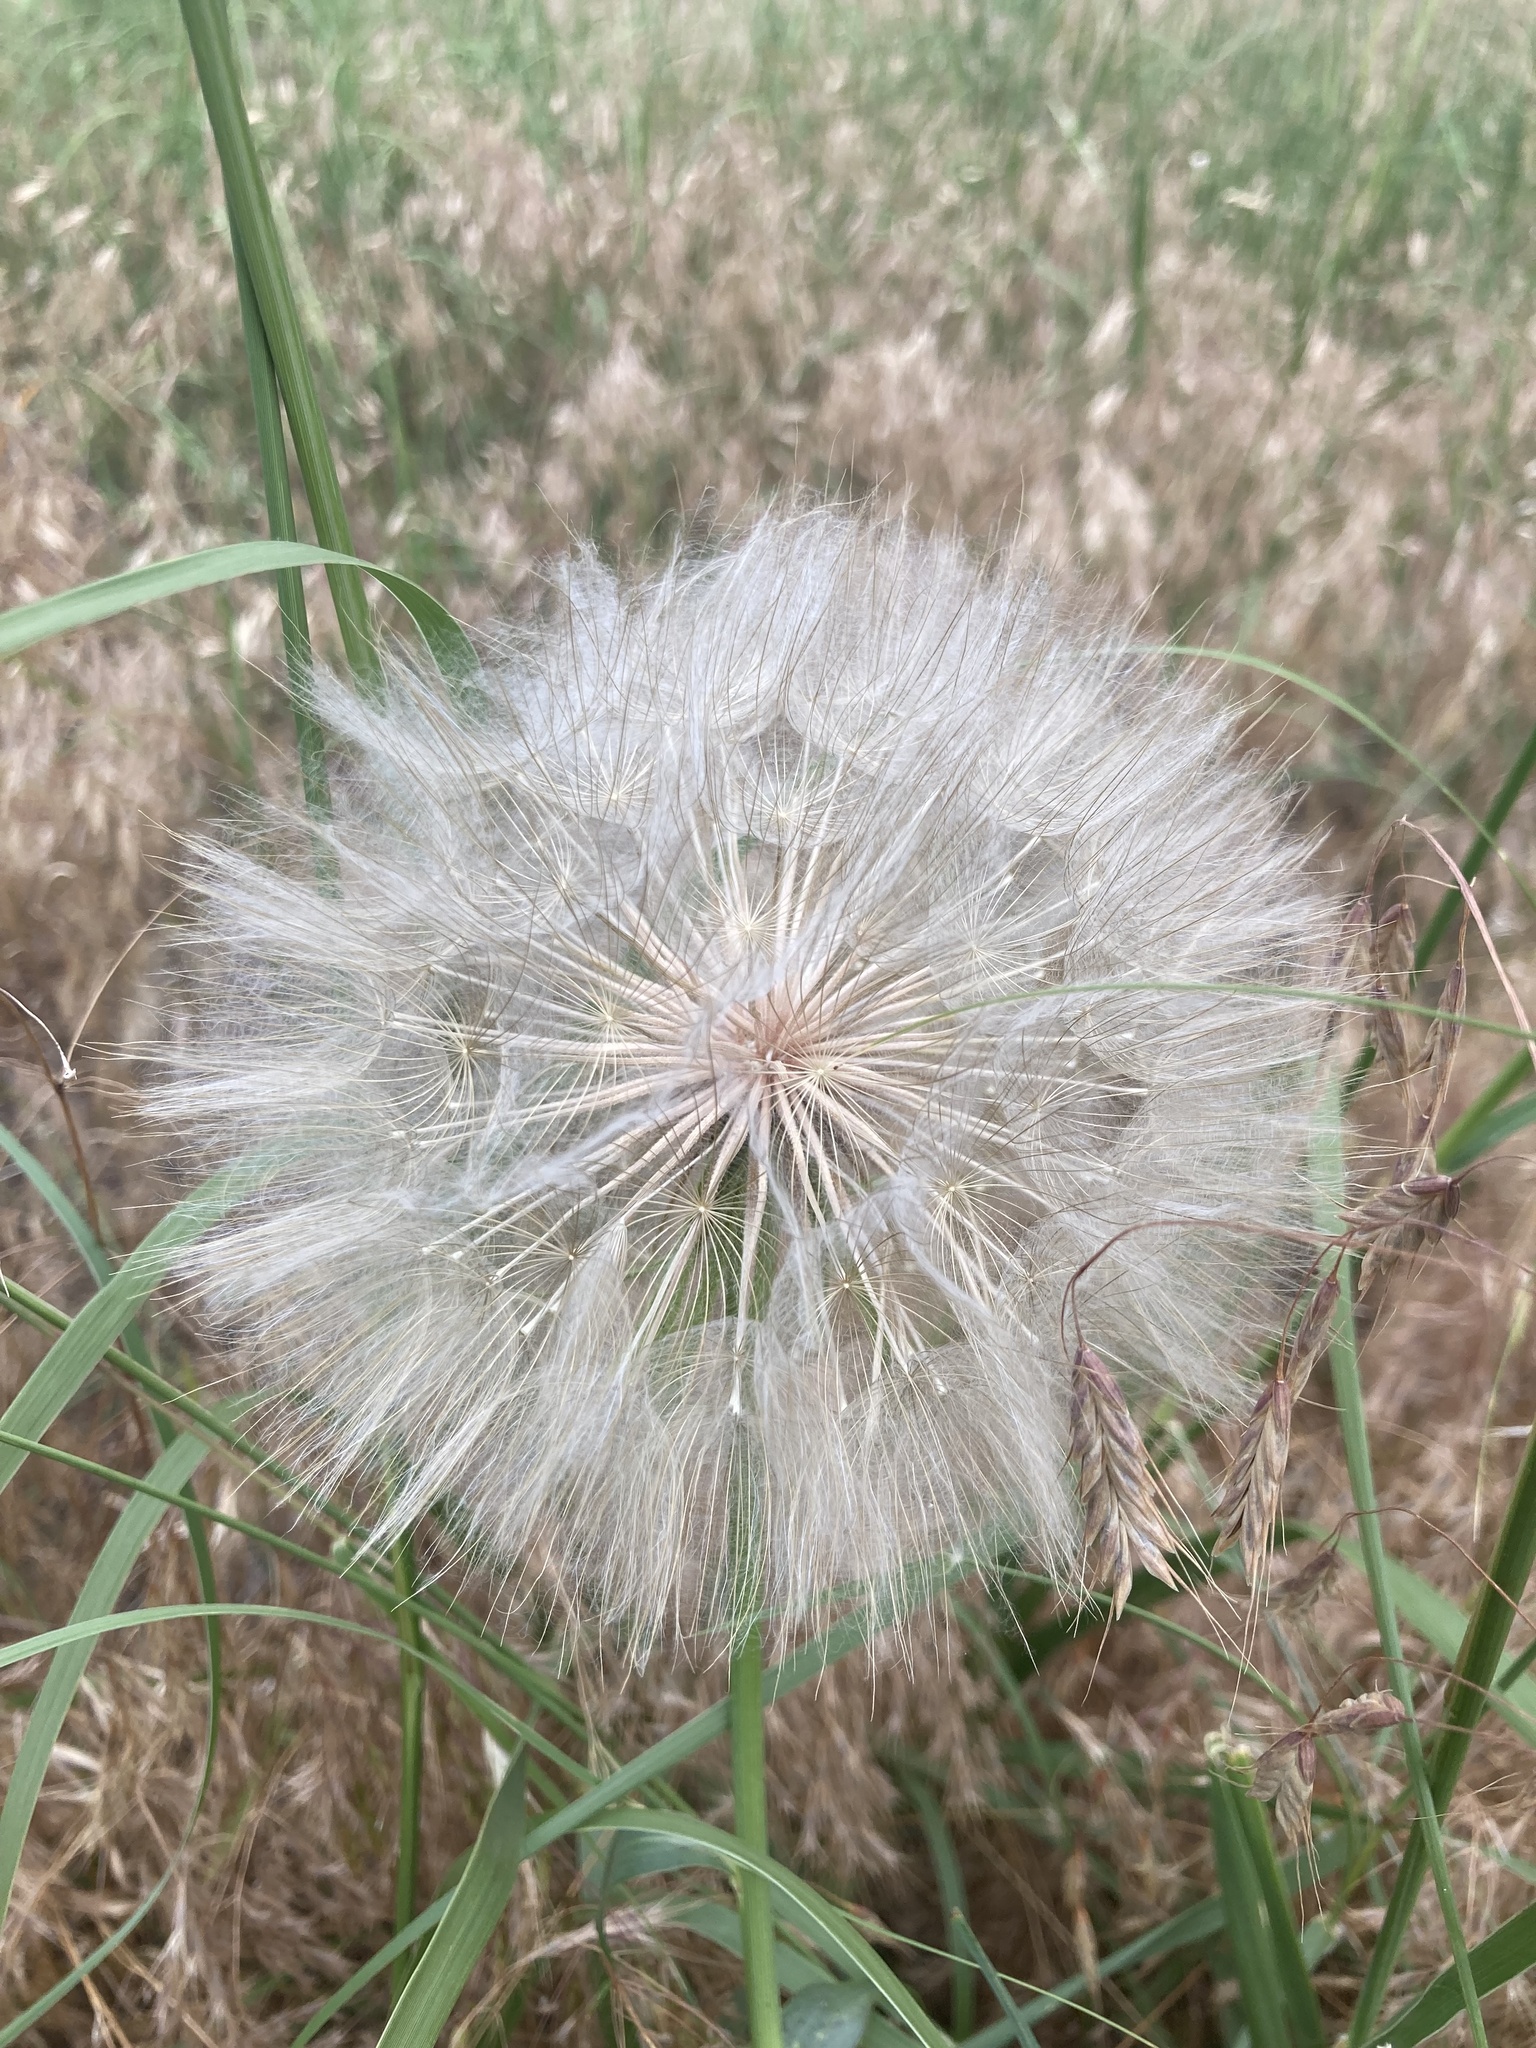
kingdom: Plantae
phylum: Tracheophyta
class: Magnoliopsida
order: Asterales
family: Asteraceae
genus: Tragopogon
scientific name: Tragopogon dubius
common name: Yellow salsify
